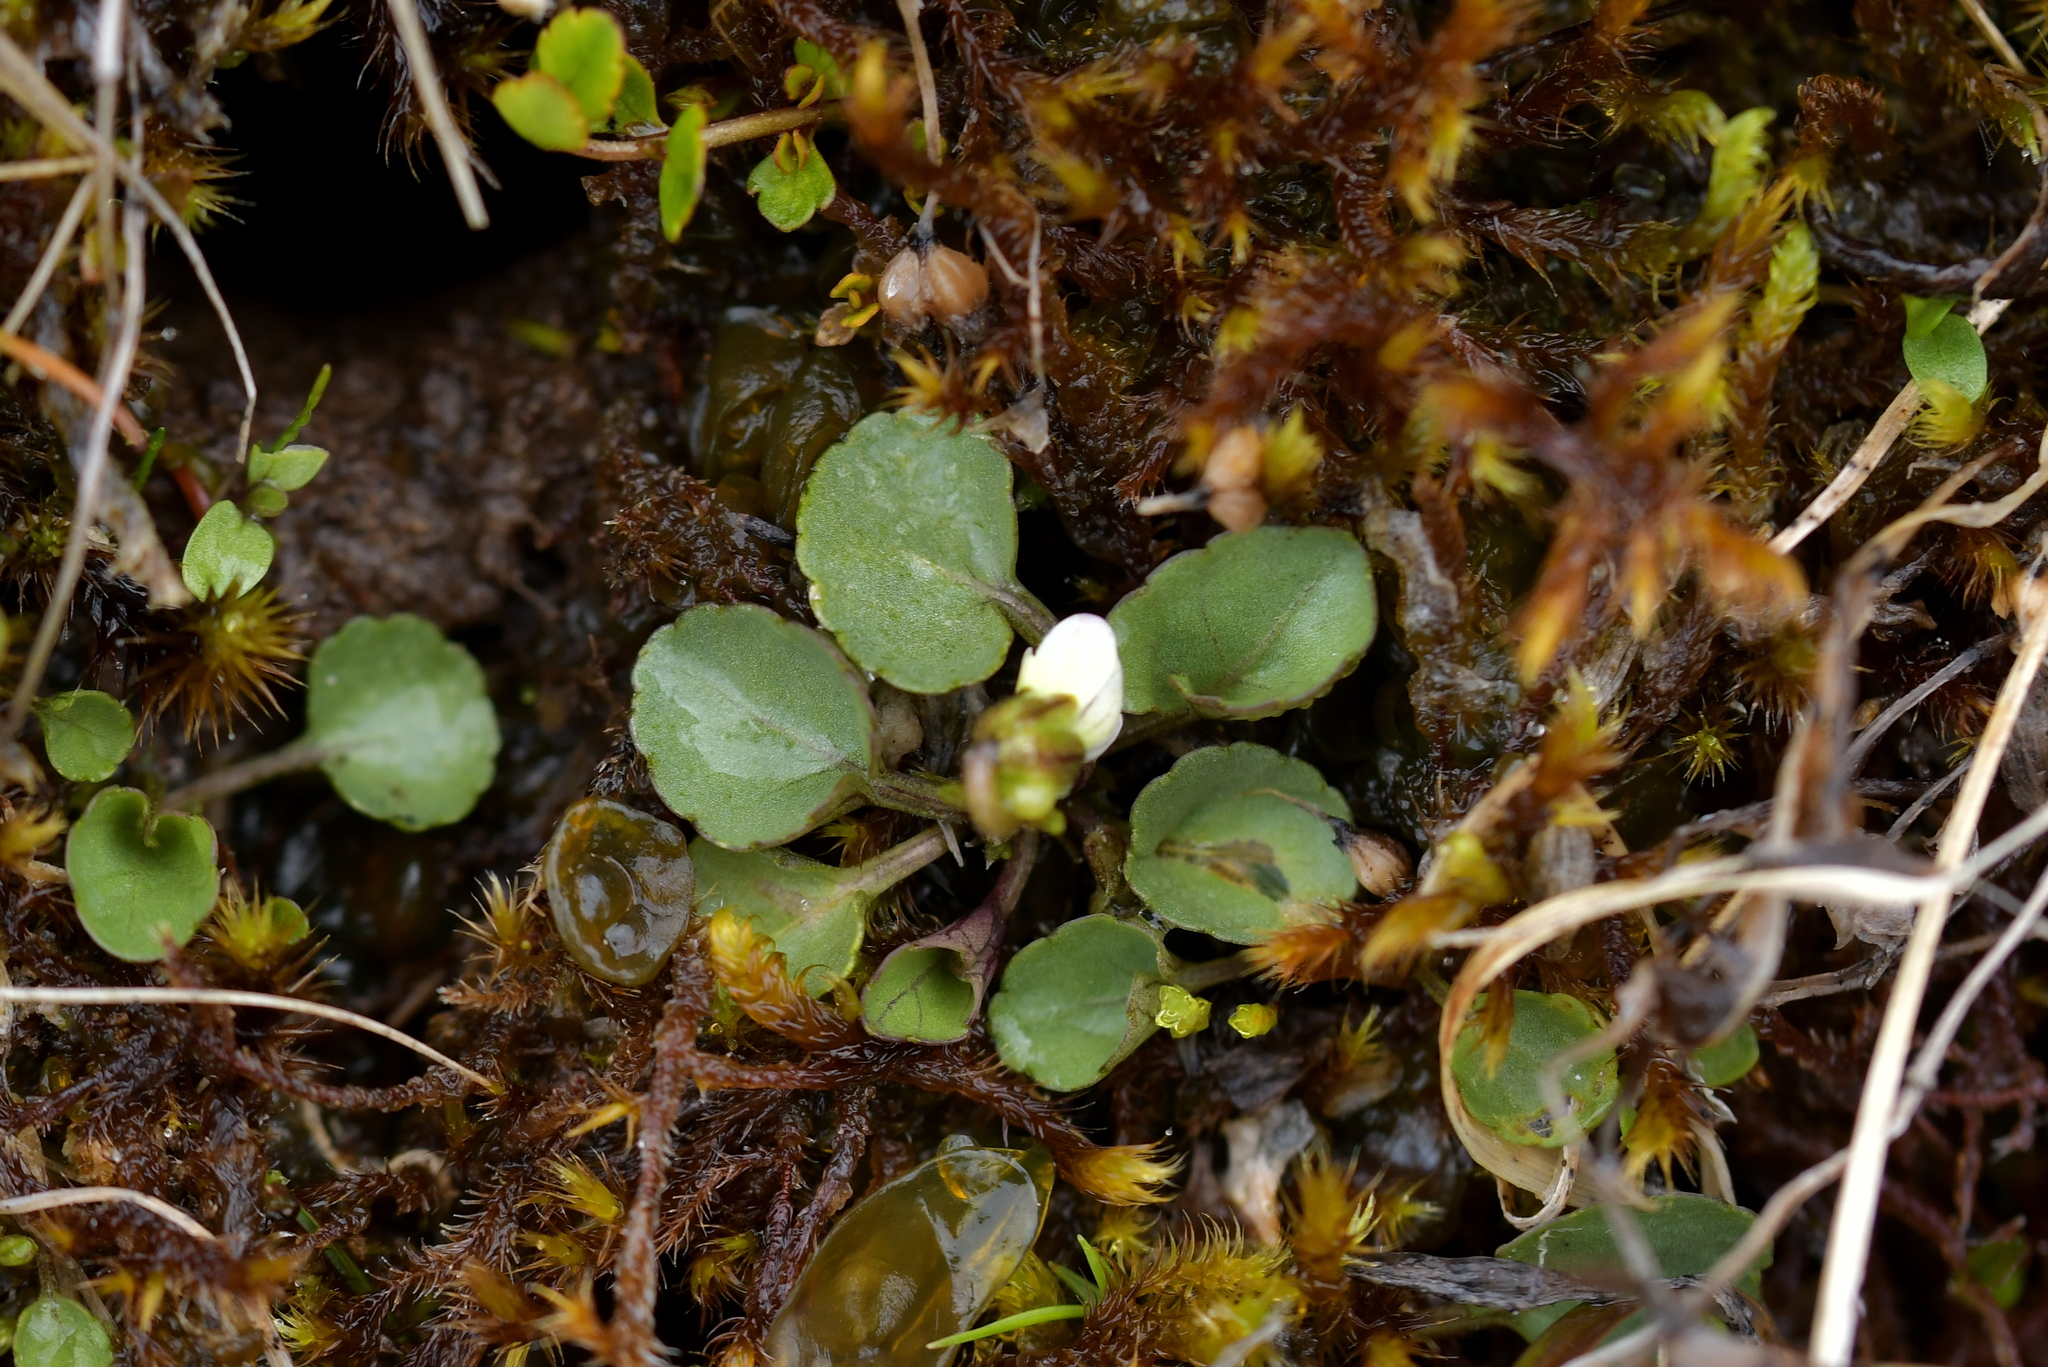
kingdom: Plantae
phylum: Tracheophyta
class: Magnoliopsida
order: Malpighiales
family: Violaceae
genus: Viola
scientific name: Viola cunninghamii
